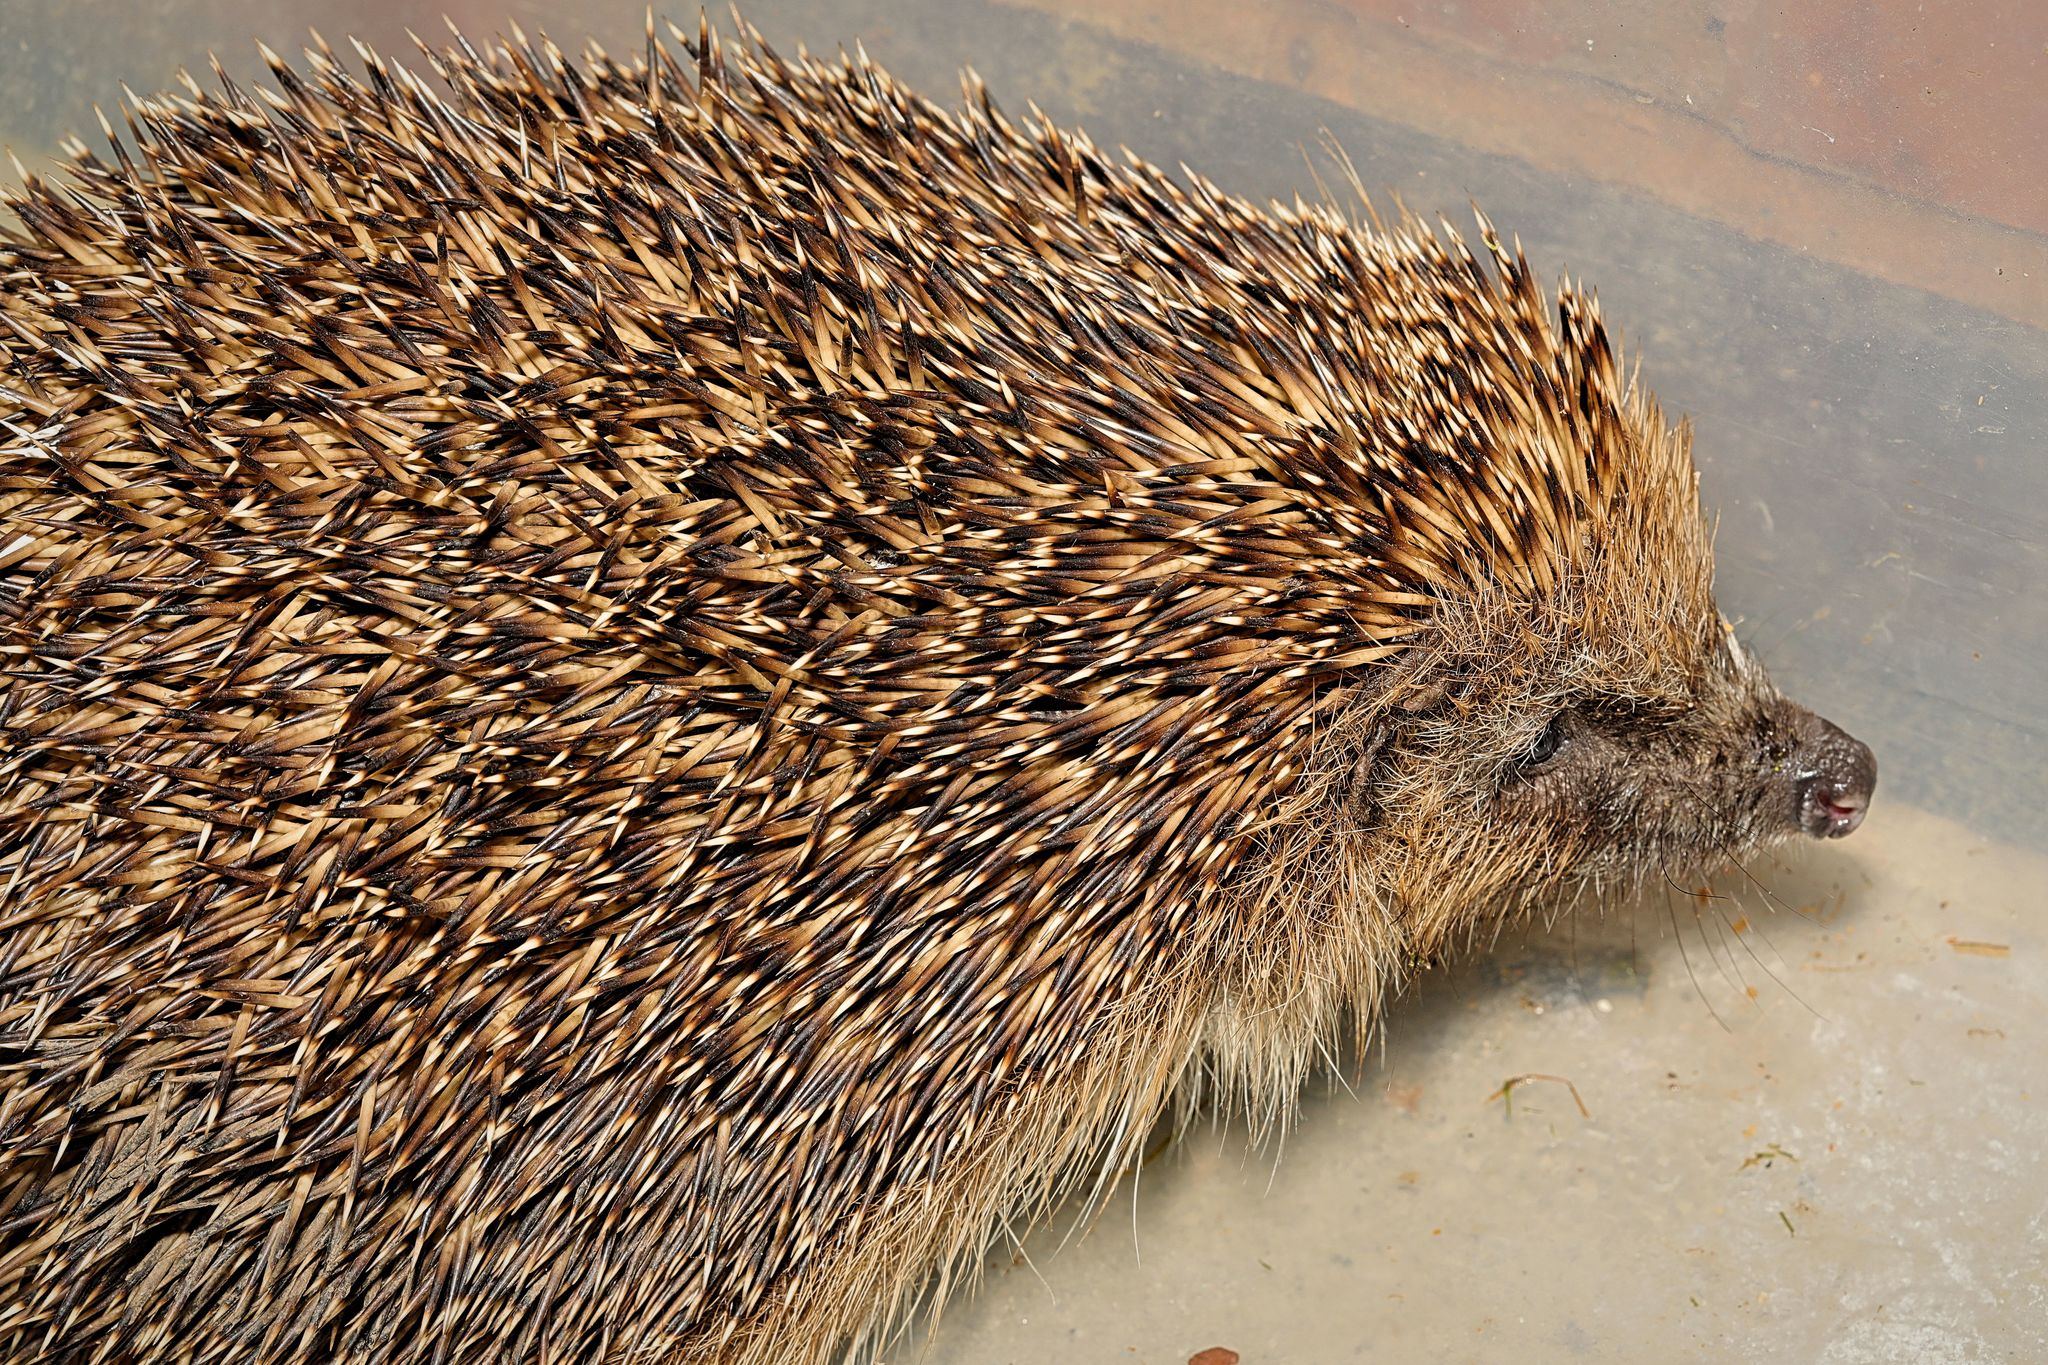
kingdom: Animalia
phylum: Chordata
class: Mammalia
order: Erinaceomorpha
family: Erinaceidae
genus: Erinaceus
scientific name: Erinaceus europaeus
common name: West european hedgehog
